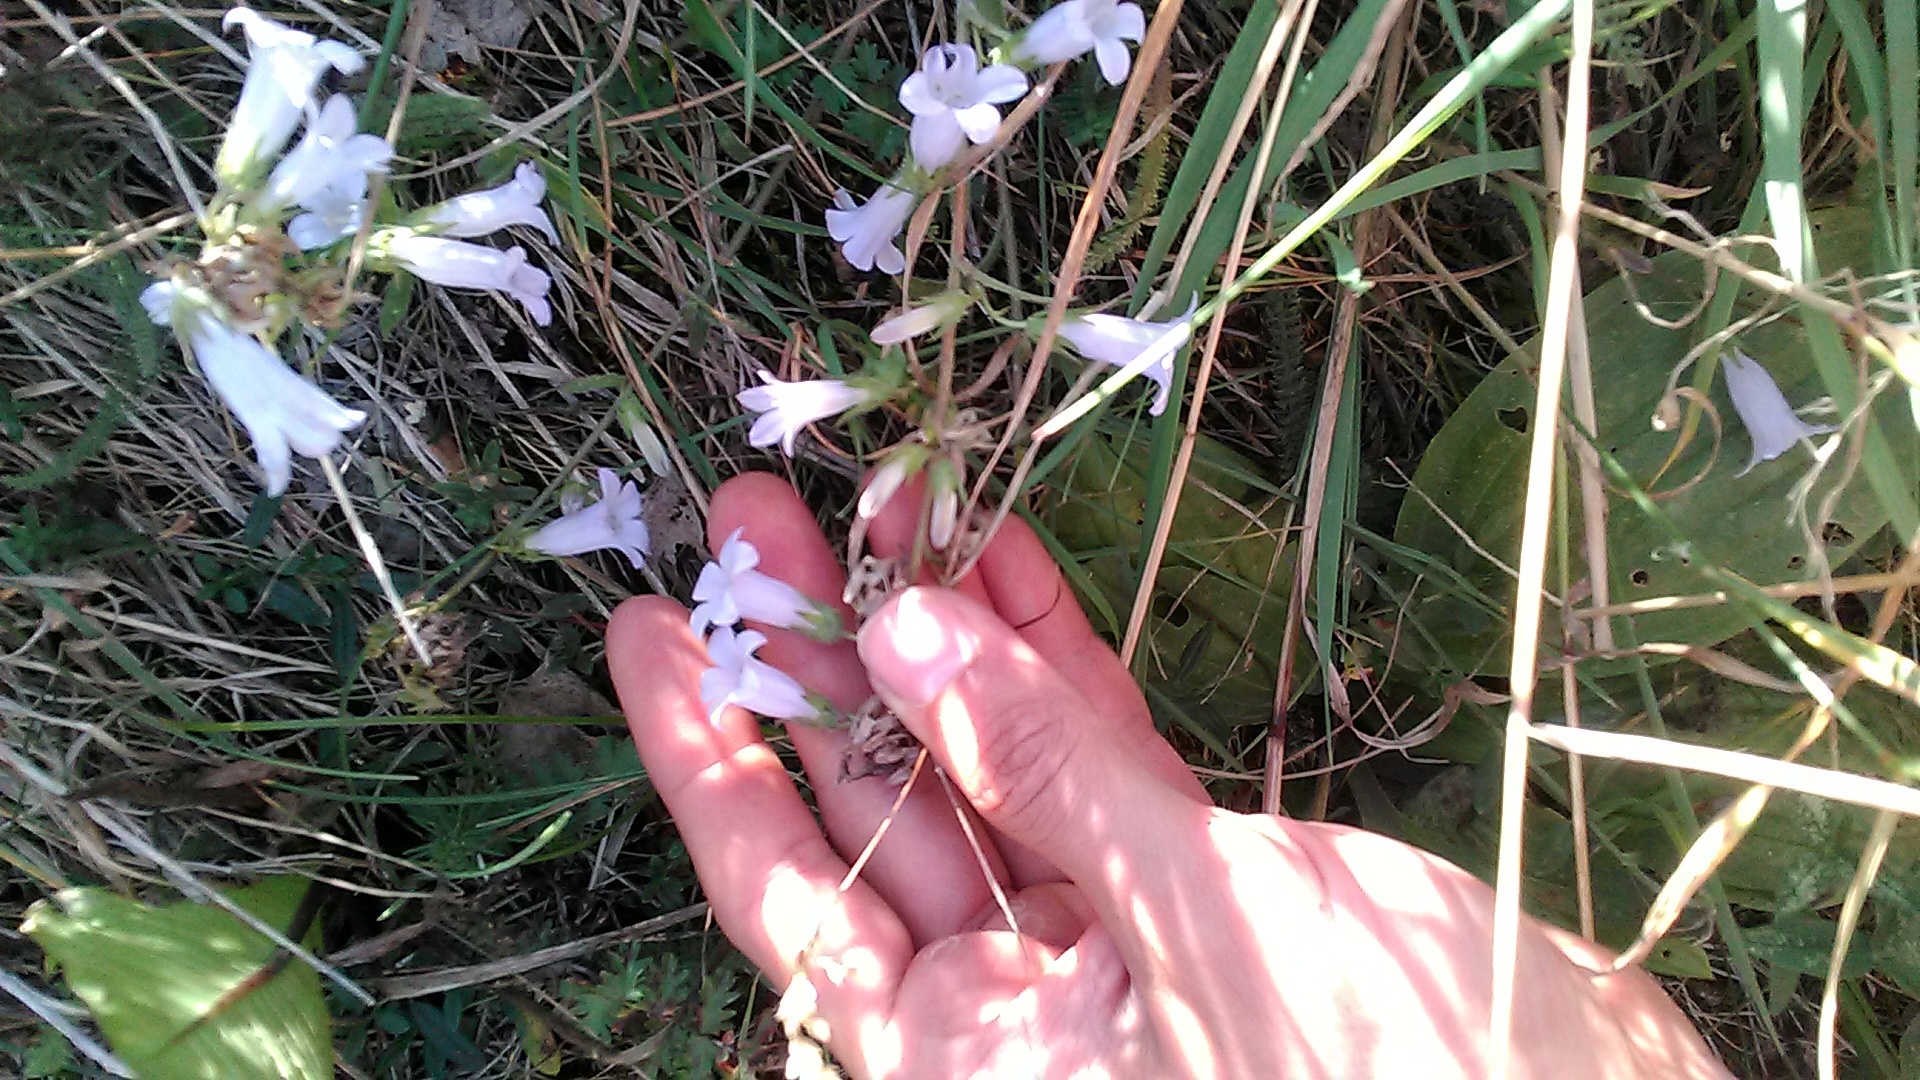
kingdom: Plantae
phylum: Tracheophyta
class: Magnoliopsida
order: Asterales
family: Campanulaceae
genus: Campanula
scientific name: Campanula sibirica
